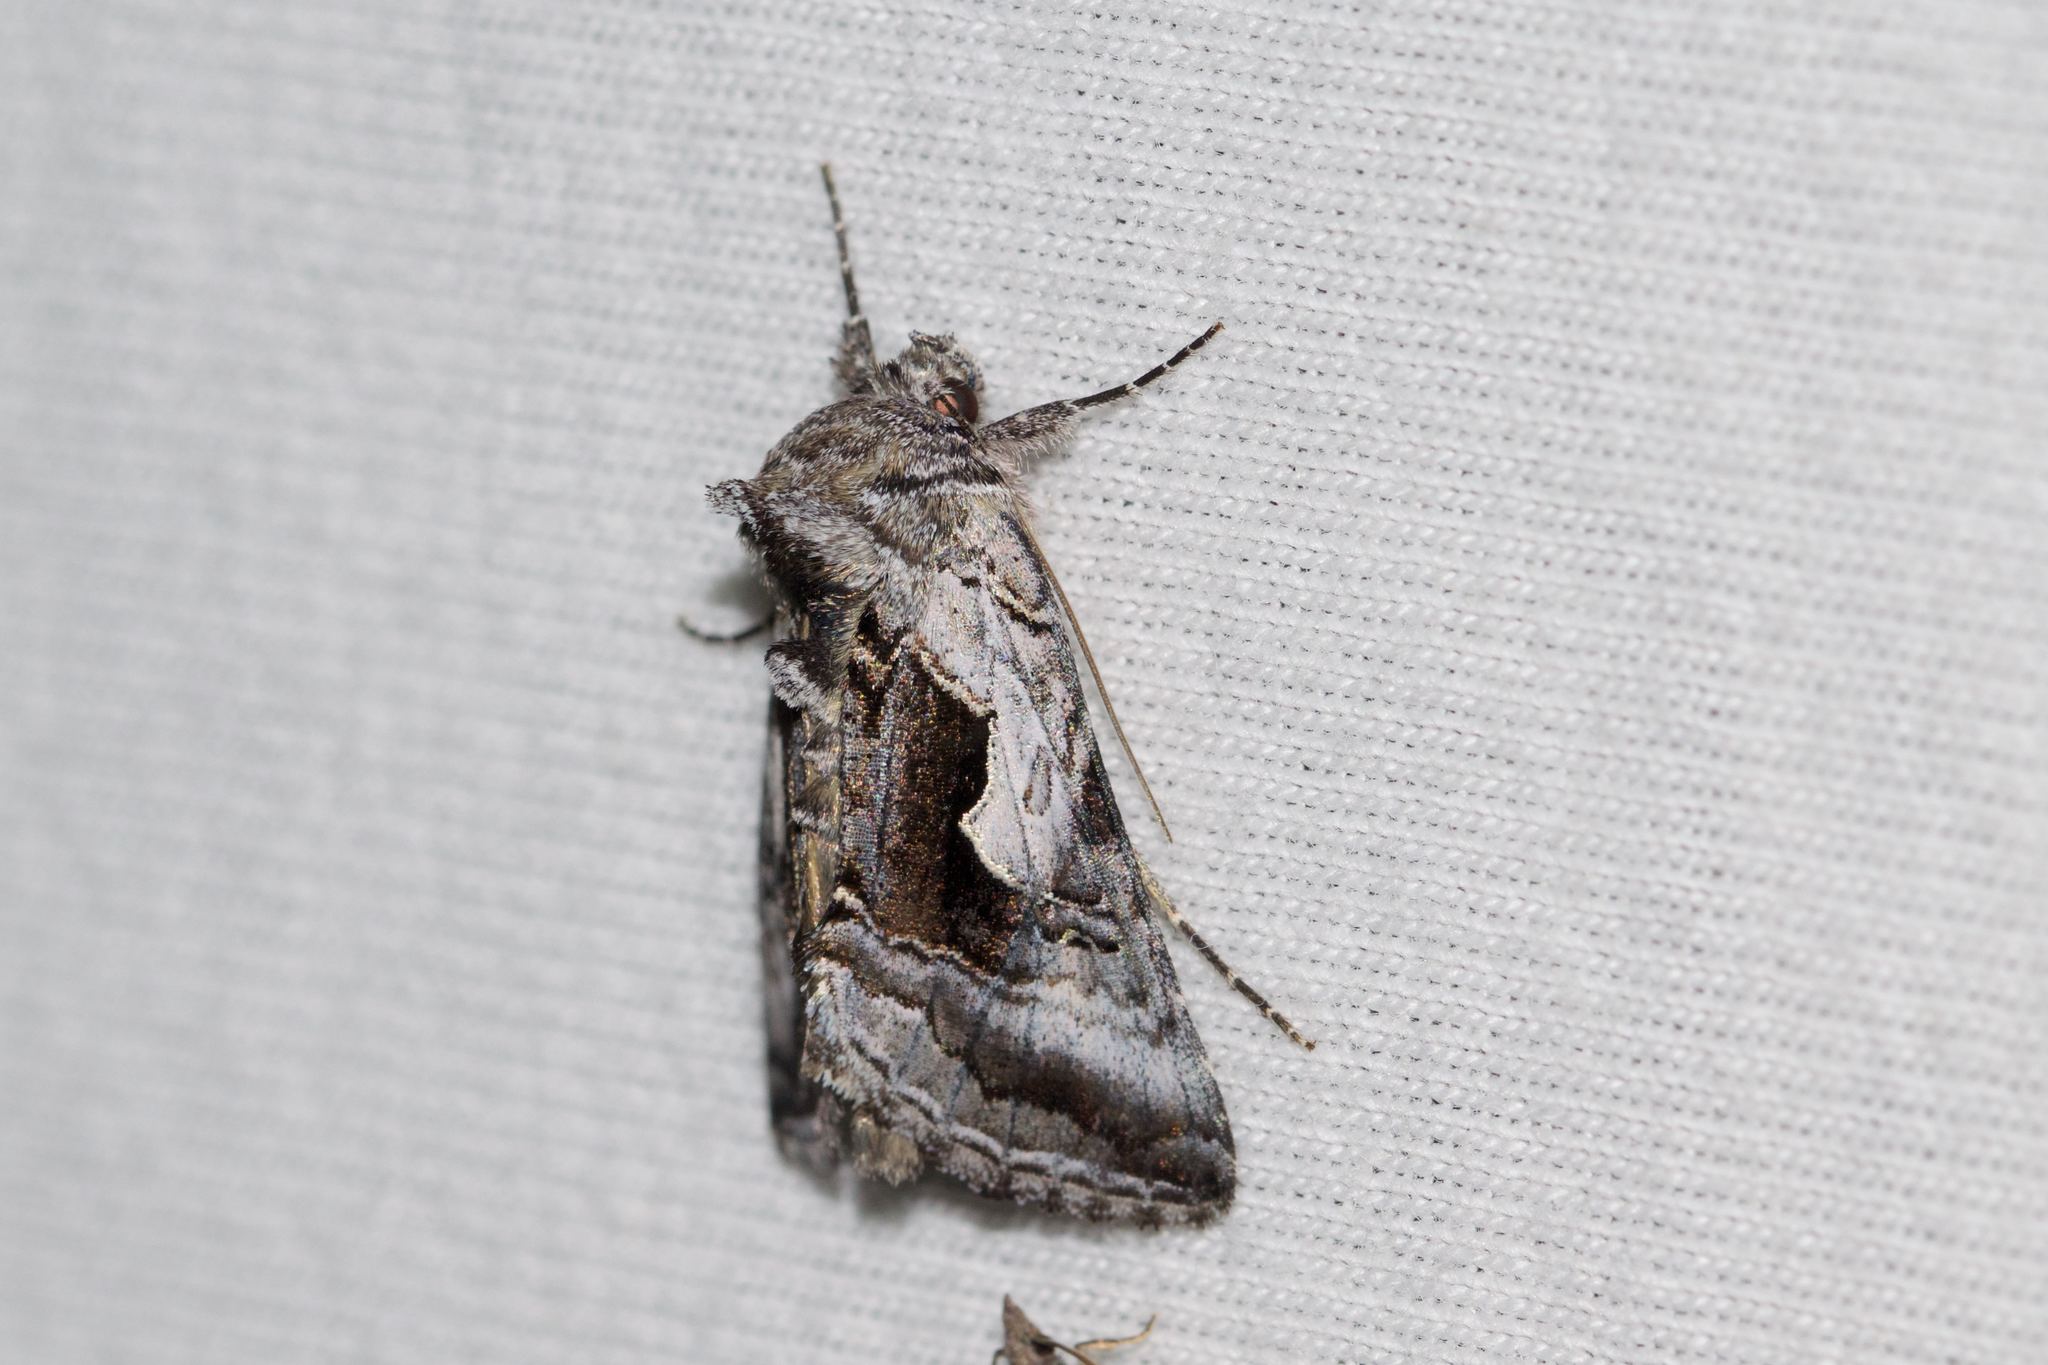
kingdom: Animalia
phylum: Arthropoda
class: Insecta
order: Lepidoptera
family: Noctuidae
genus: Syngrapha
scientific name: Syngrapha surena
